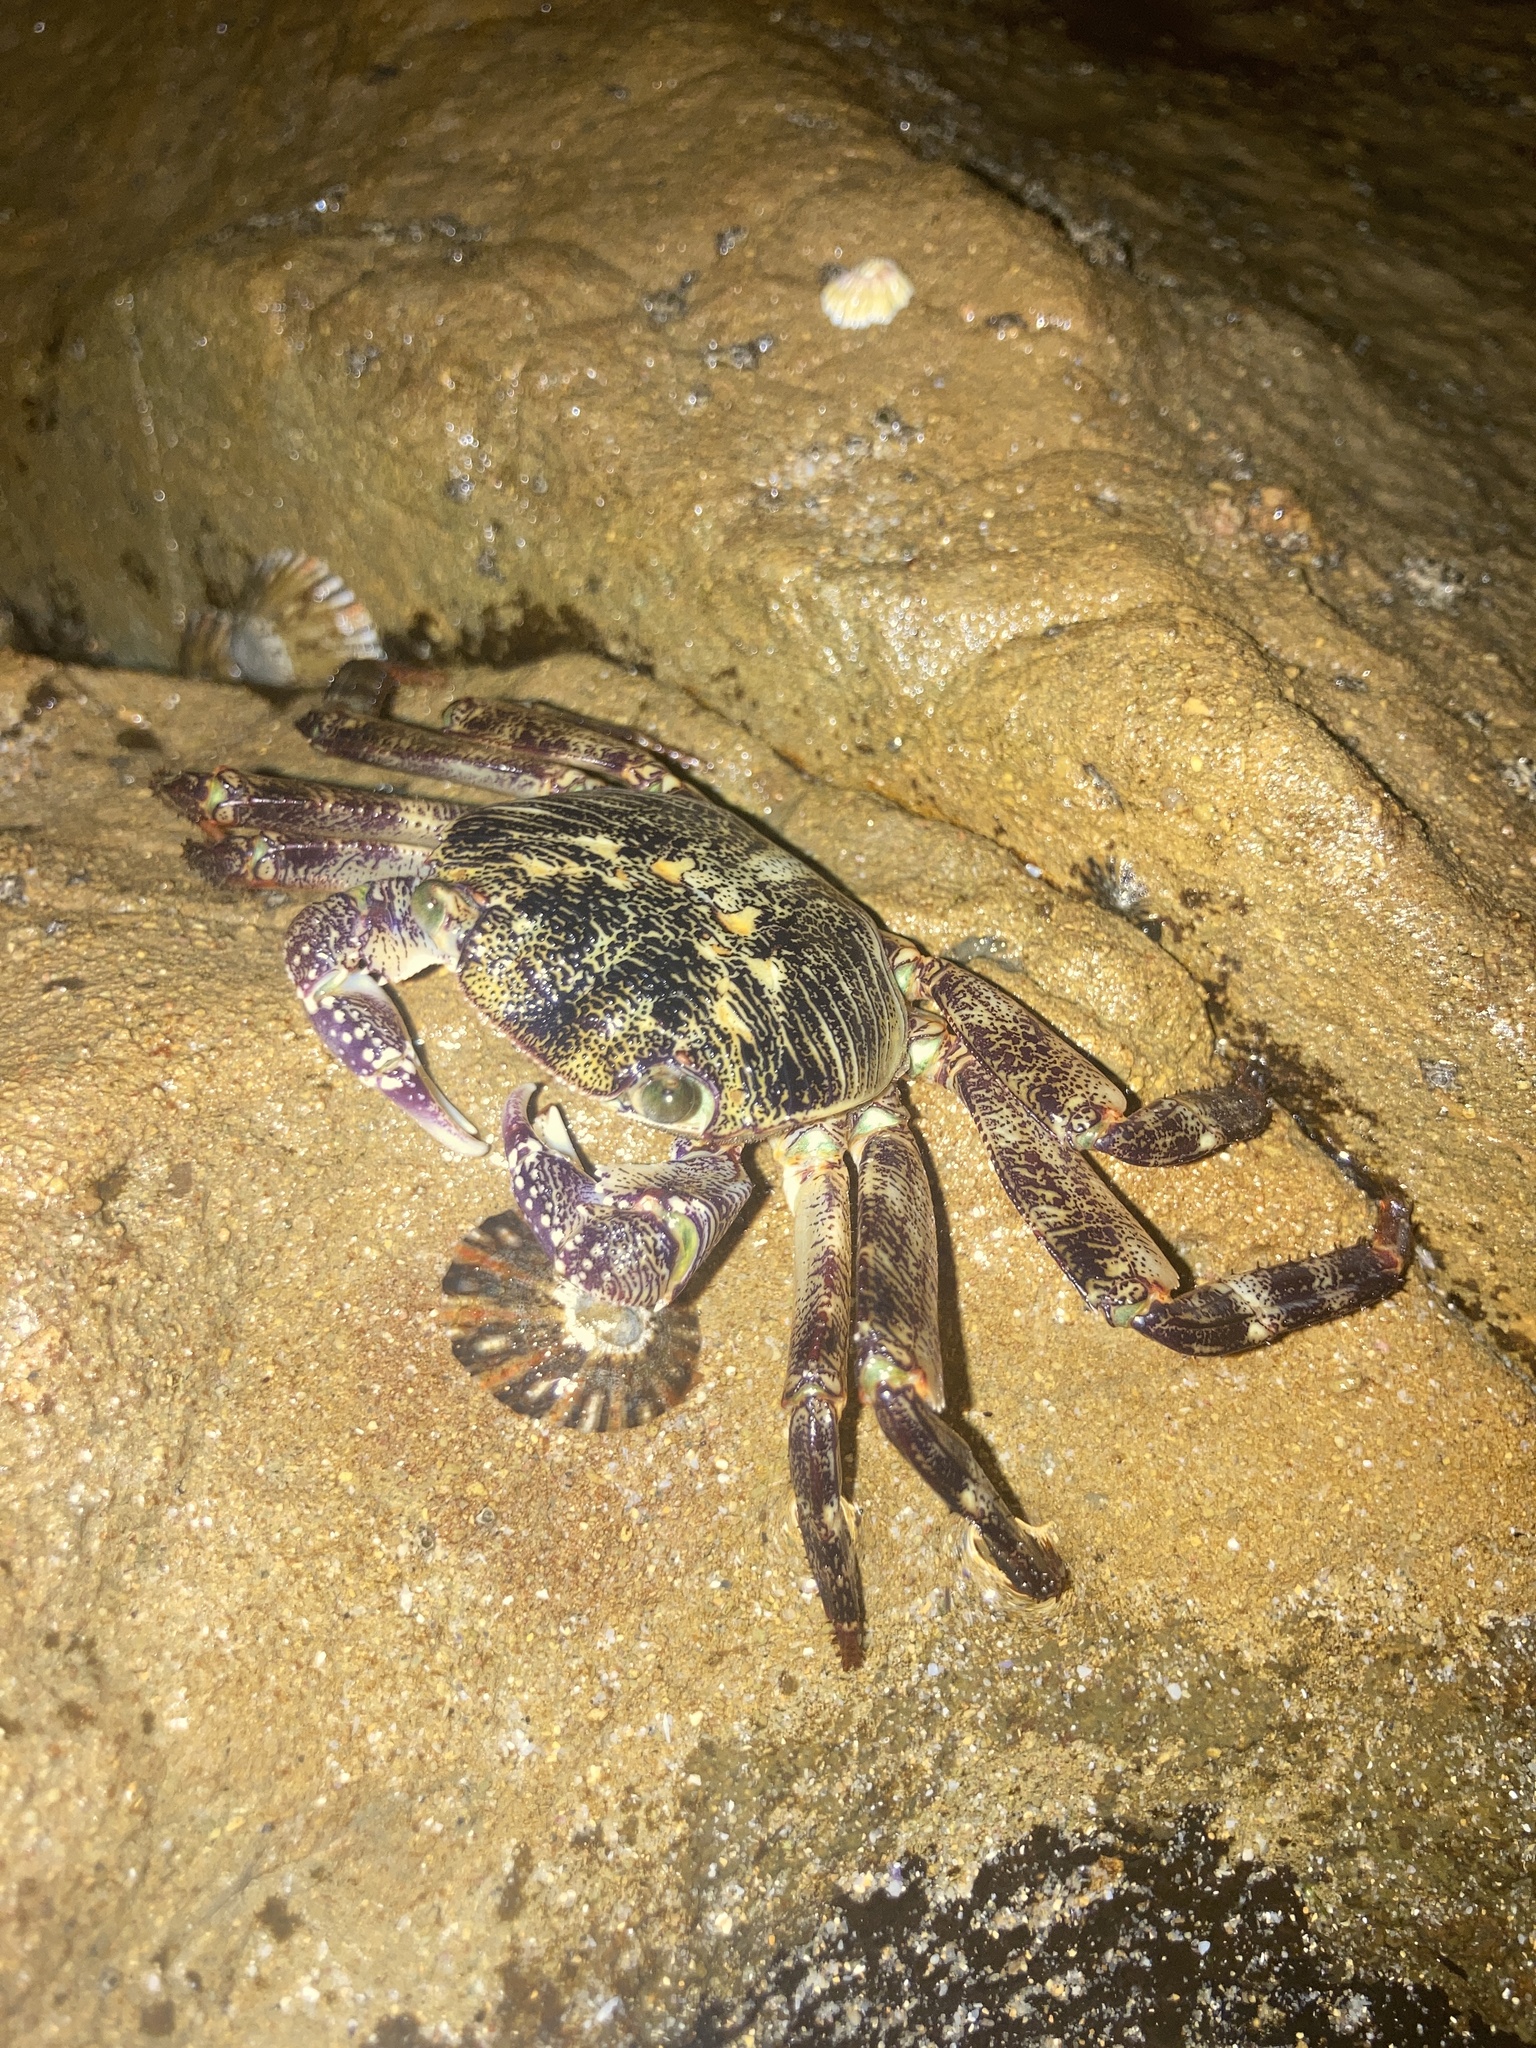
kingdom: Animalia
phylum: Arthropoda
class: Malacostraca
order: Decapoda
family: Grapsidae
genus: Leptograpsus
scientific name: Leptograpsus variegatus
